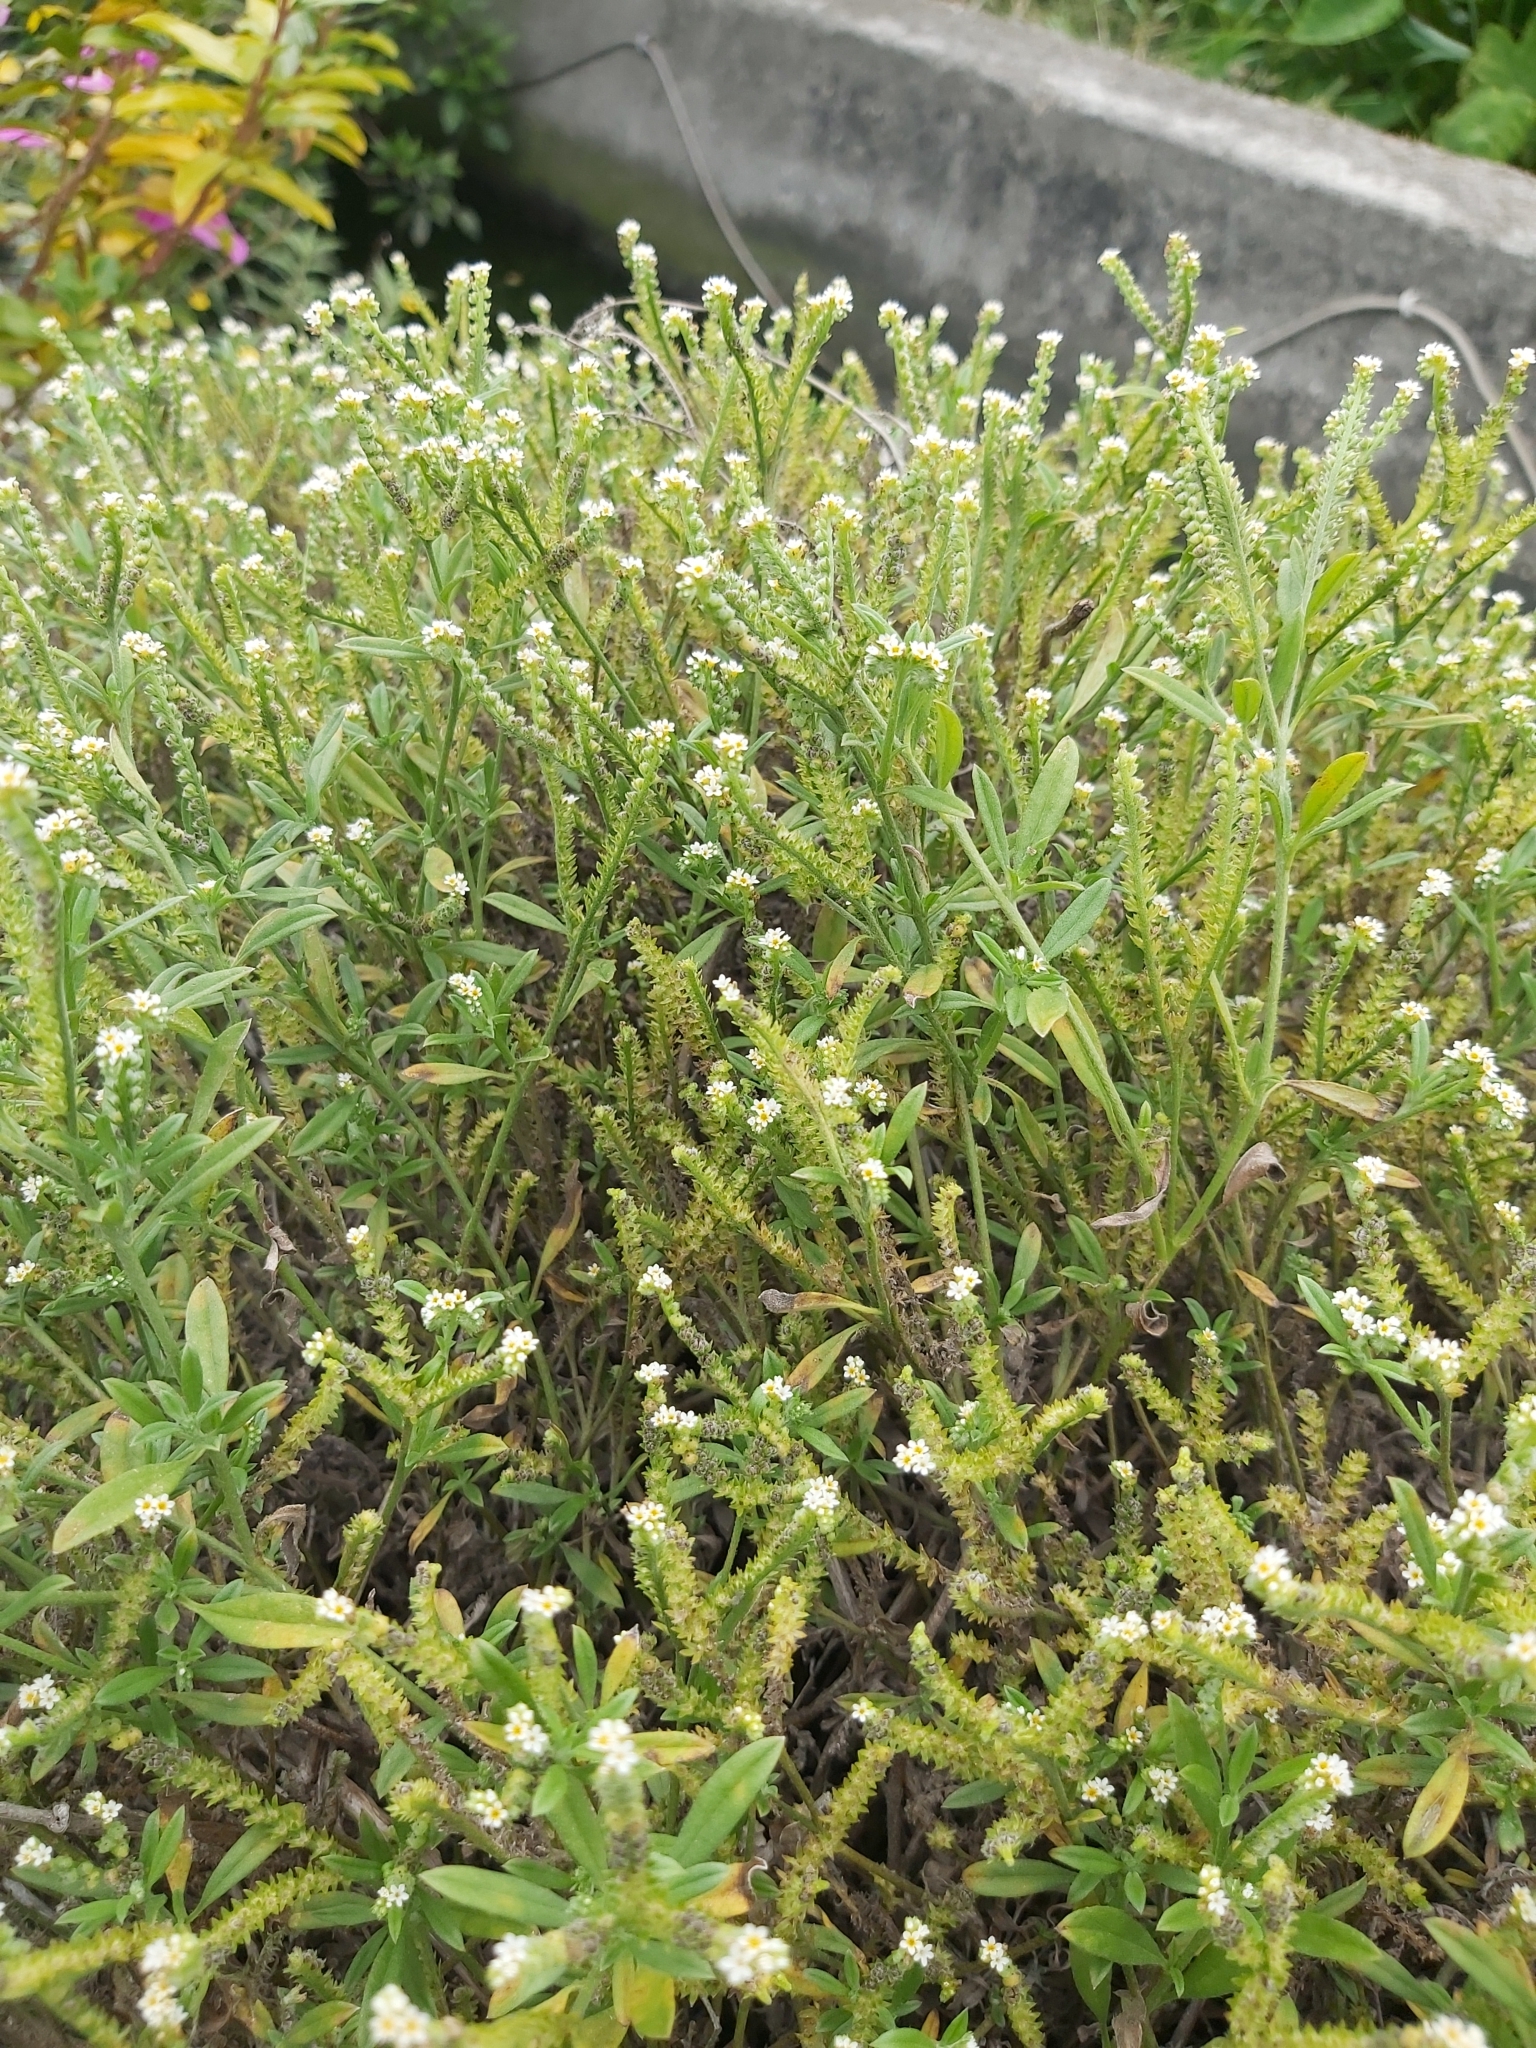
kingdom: Plantae
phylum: Tracheophyta
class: Magnoliopsida
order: Boraginales
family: Heliotropiaceae
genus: Euploca
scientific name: Euploca procumbens
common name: Fourspike heliotrope
